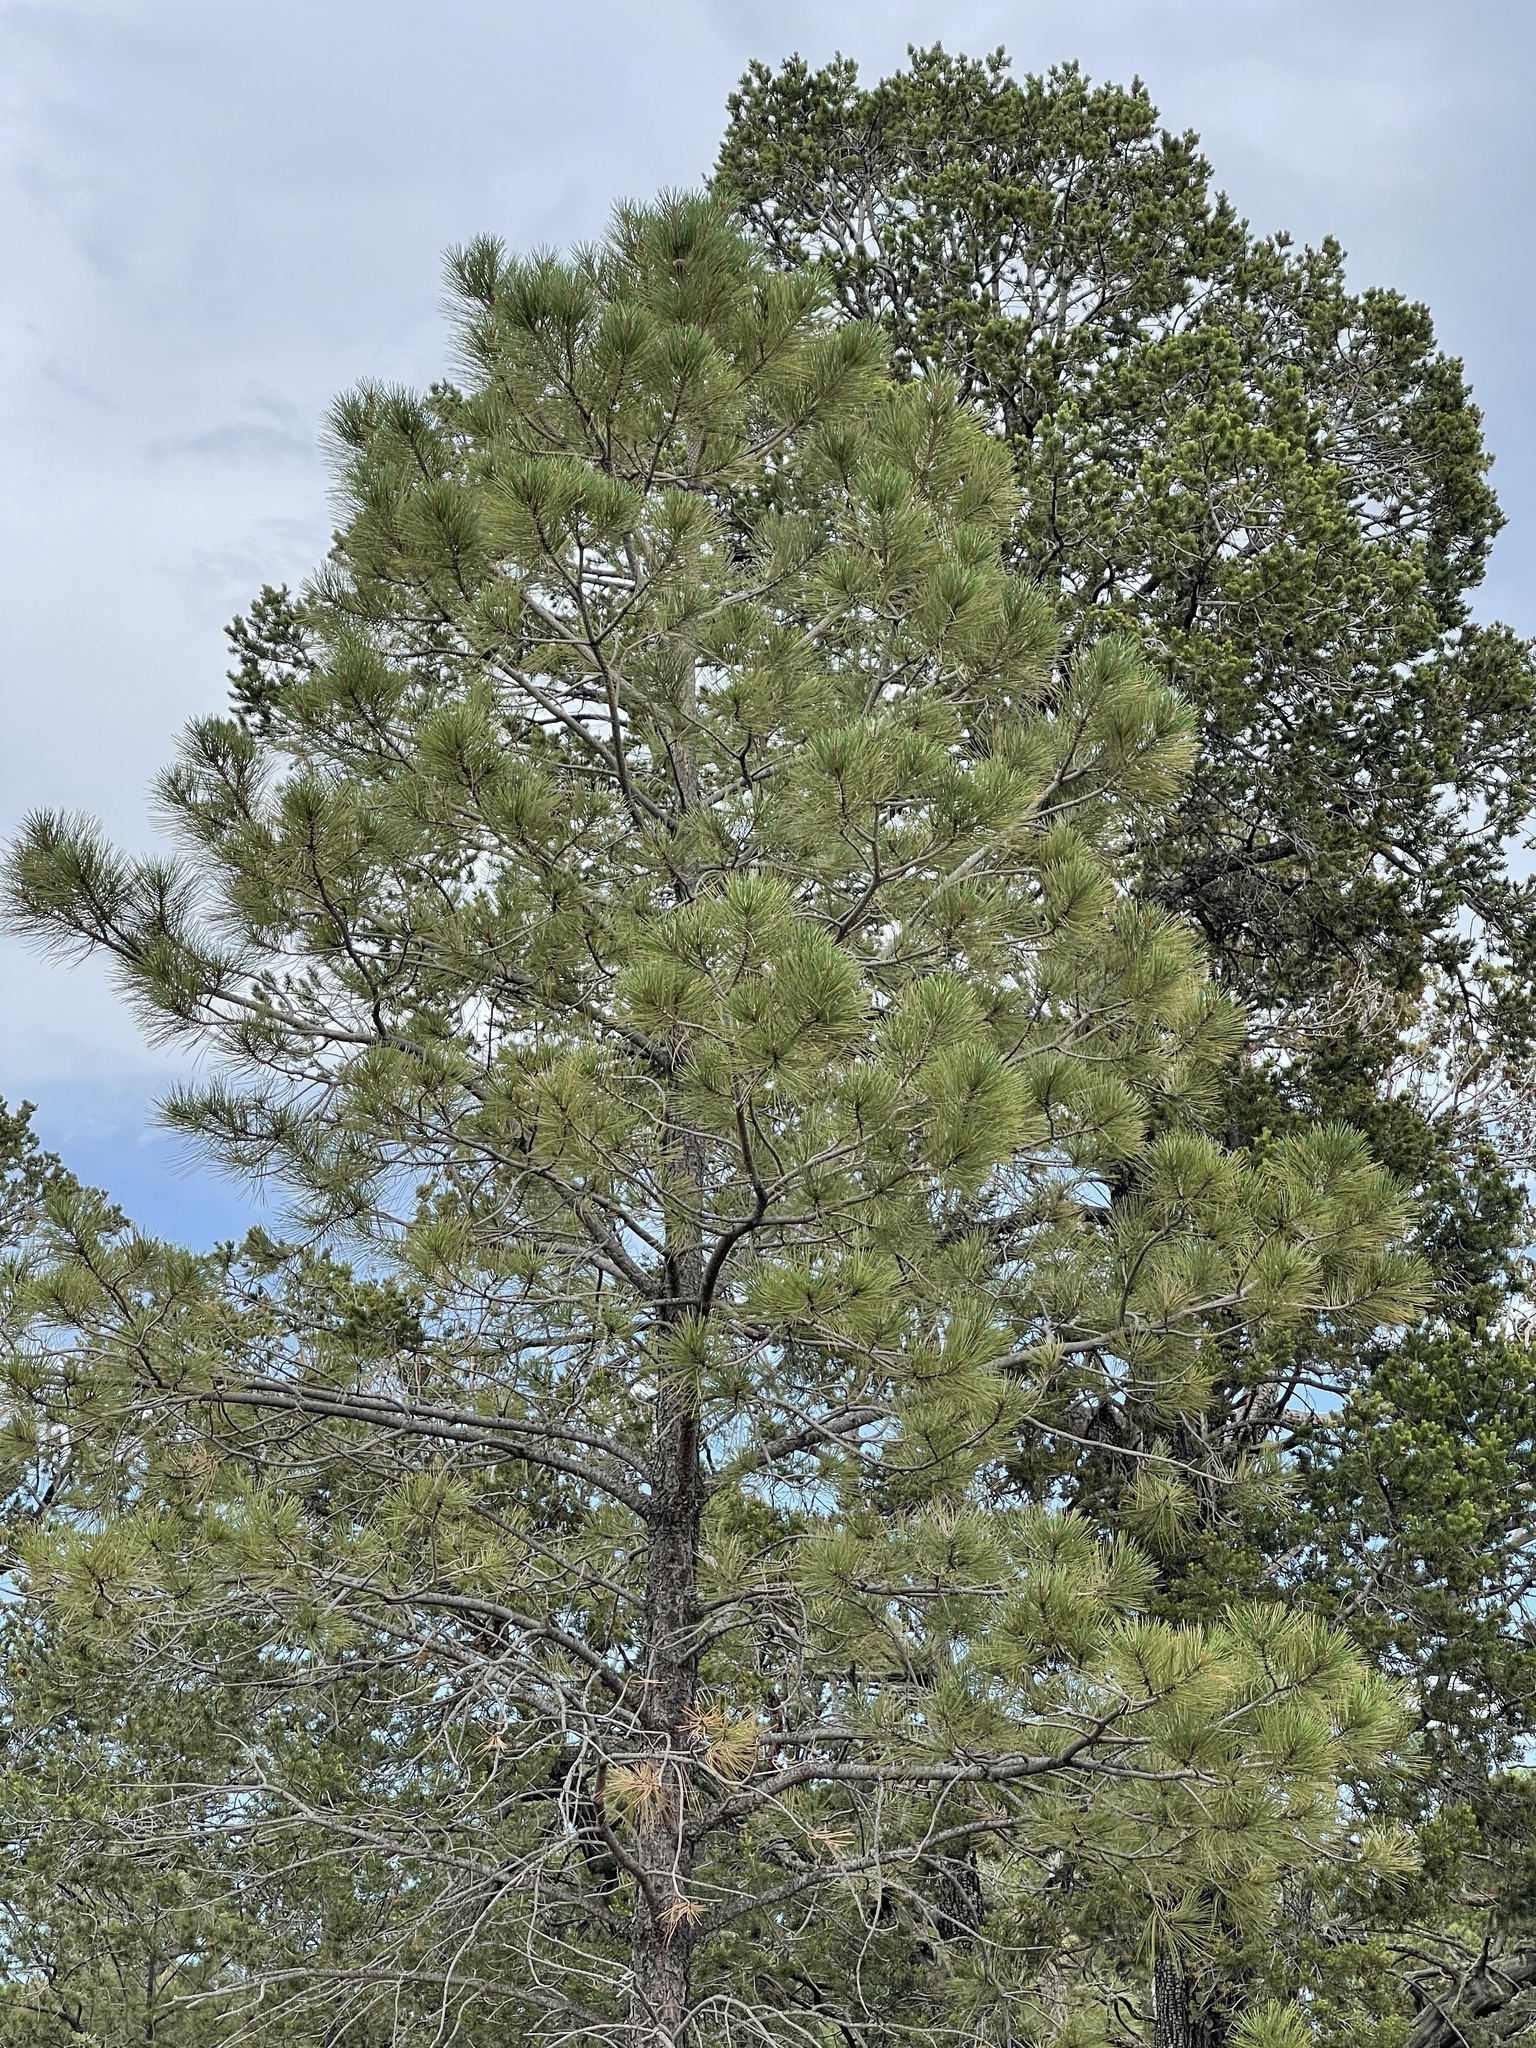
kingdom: Plantae
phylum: Tracheophyta
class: Pinopsida
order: Pinales
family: Pinaceae
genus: Pinus
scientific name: Pinus ponderosa
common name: Western yellow-pine
